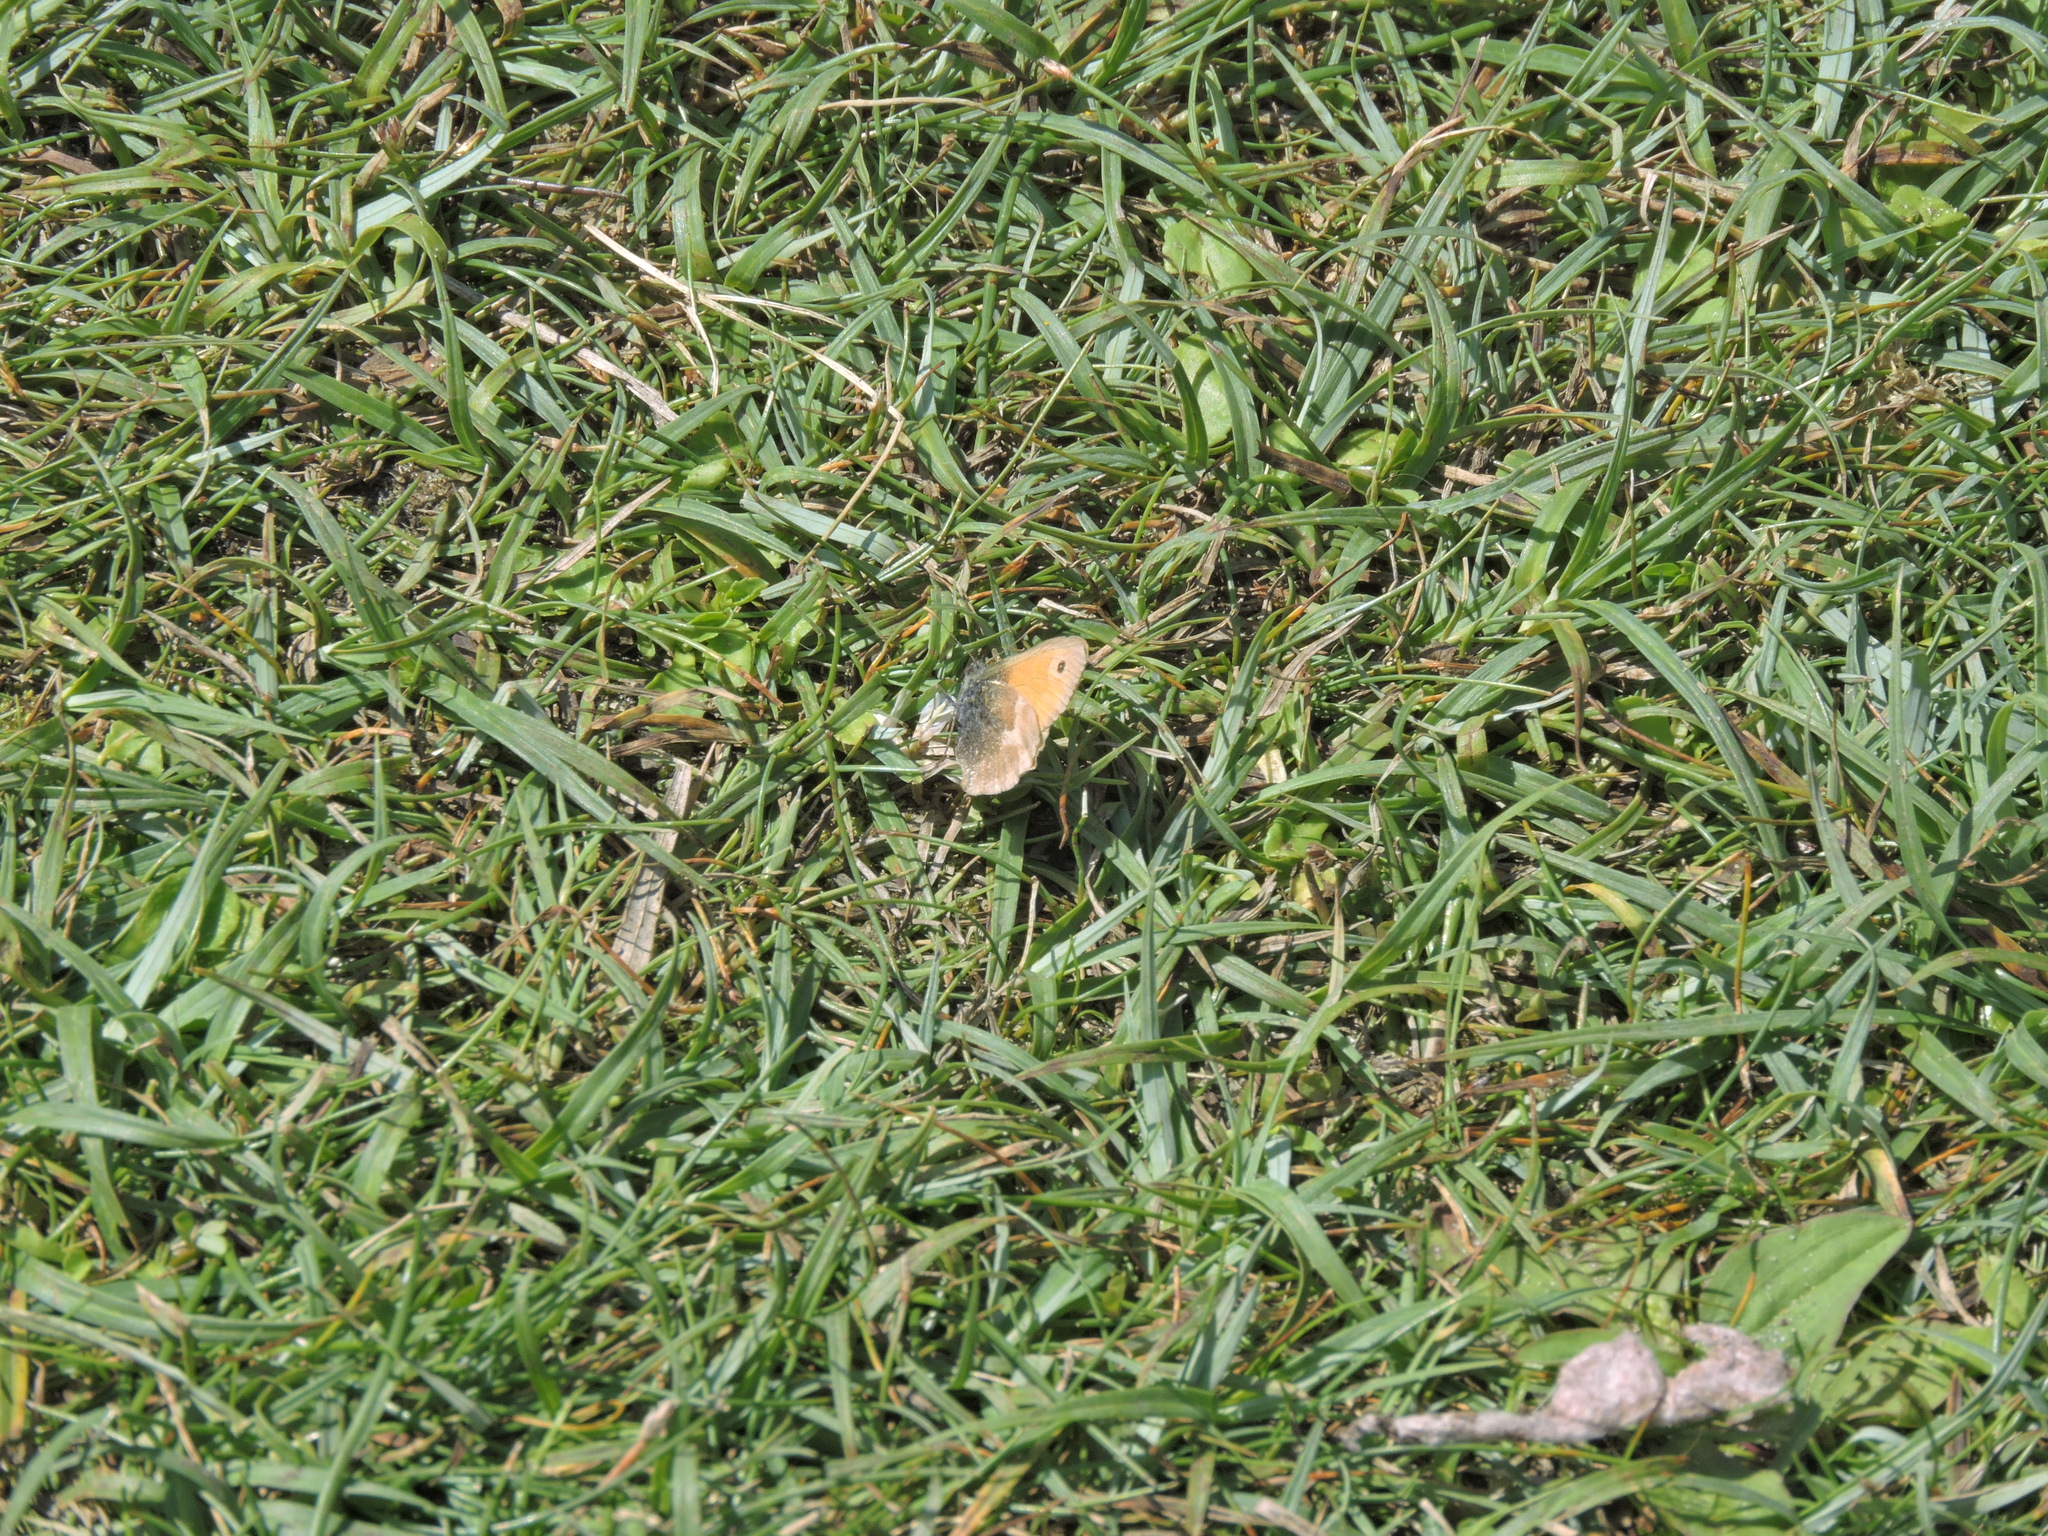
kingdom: Animalia
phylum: Arthropoda
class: Insecta
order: Lepidoptera
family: Nymphalidae
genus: Coenonympha
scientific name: Coenonympha pamphilus
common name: Small heath
